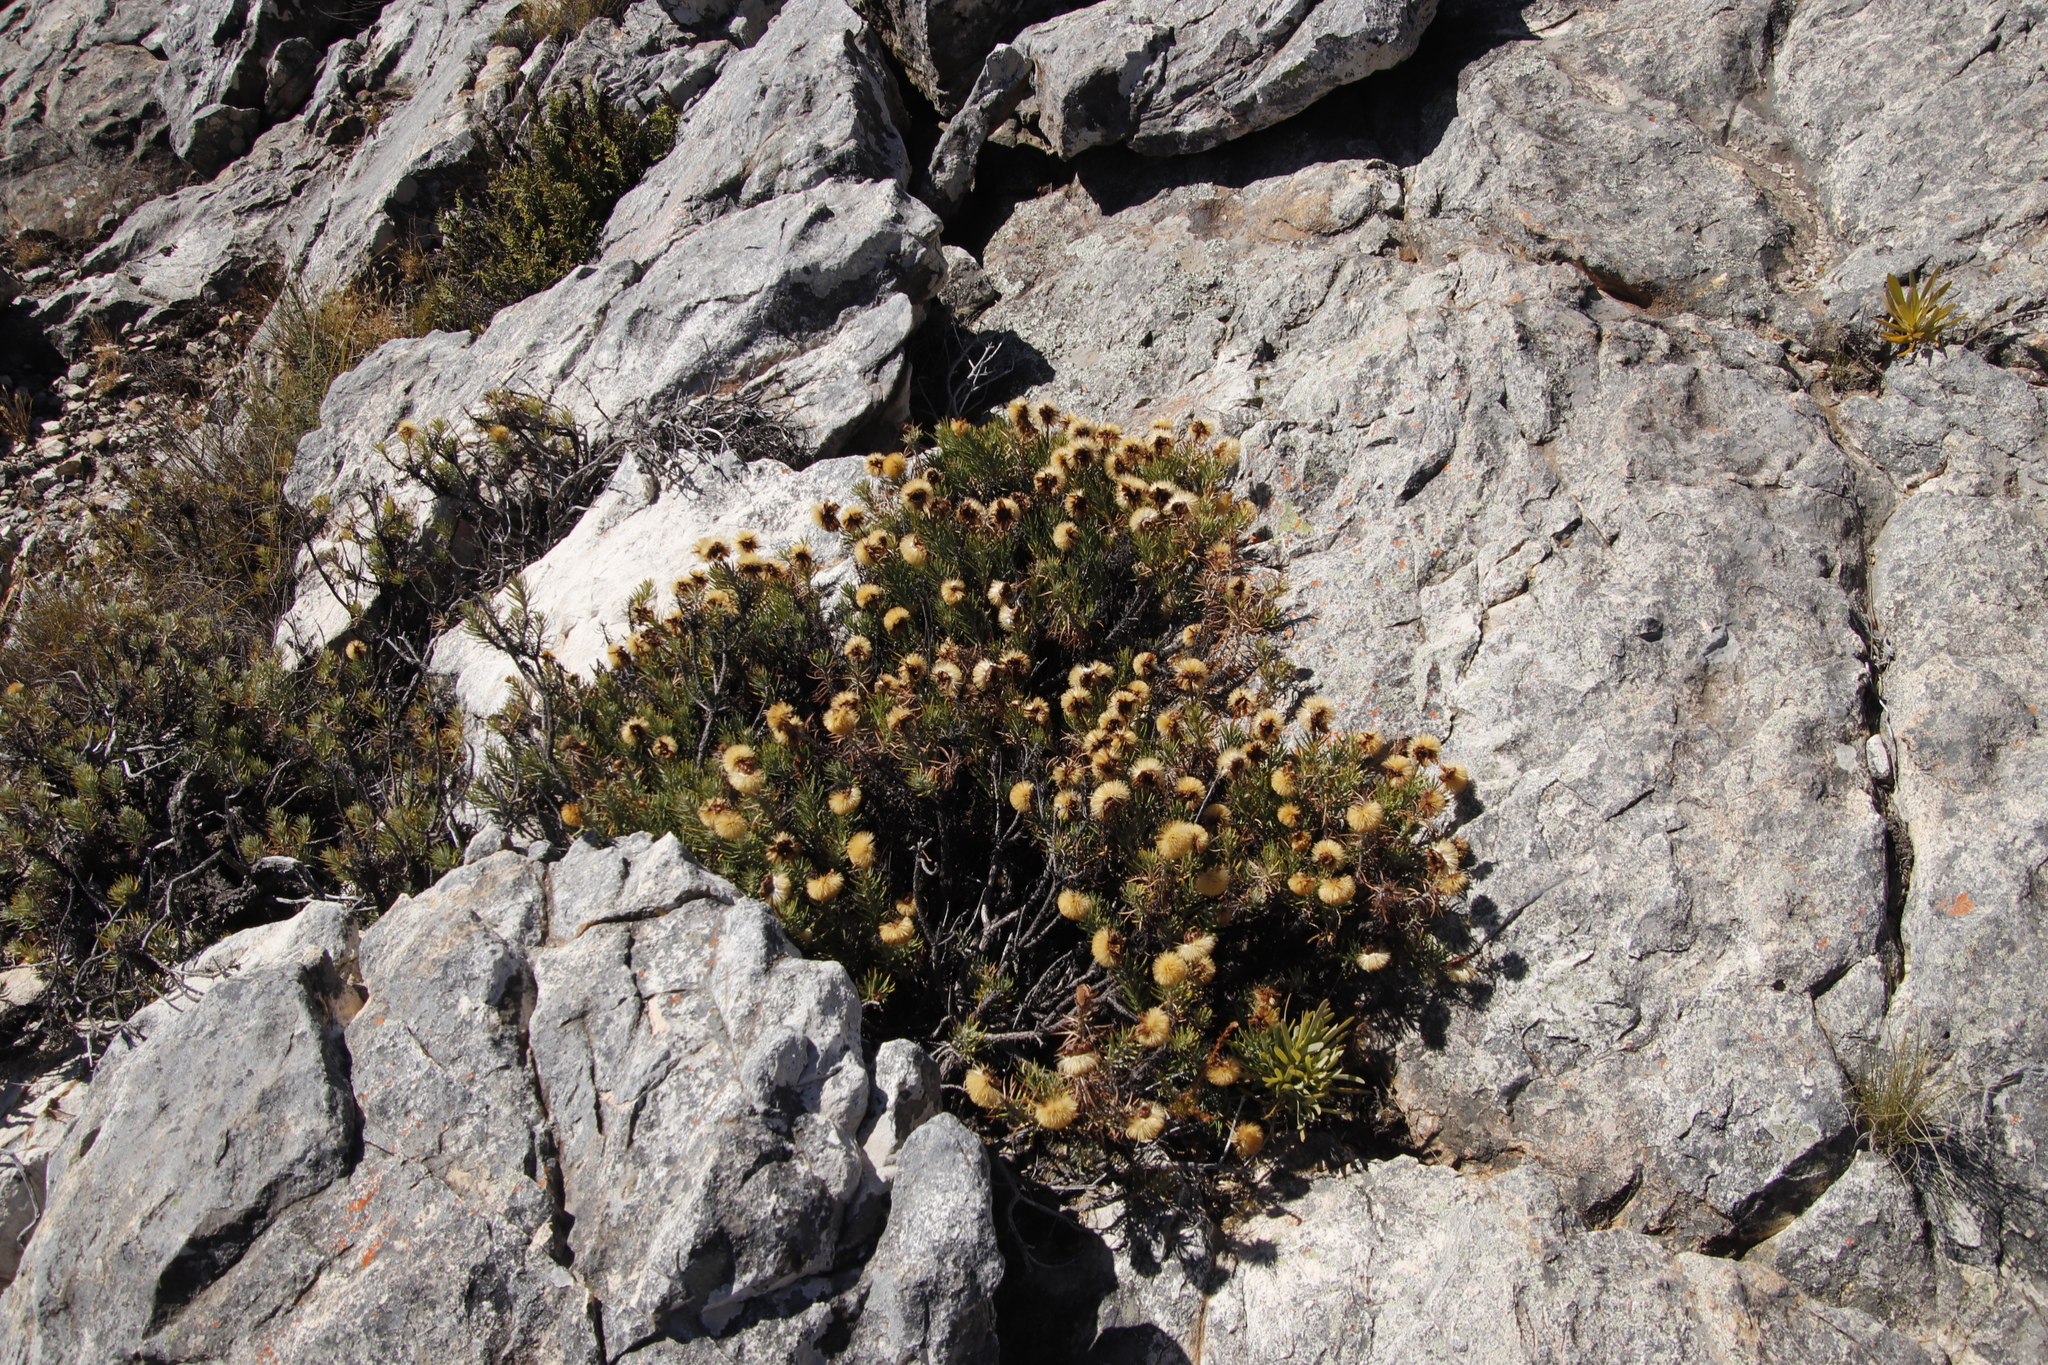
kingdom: Plantae
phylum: Tracheophyta
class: Magnoliopsida
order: Asterales
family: Asteraceae
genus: Heterolepis
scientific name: Heterolepis aliena
